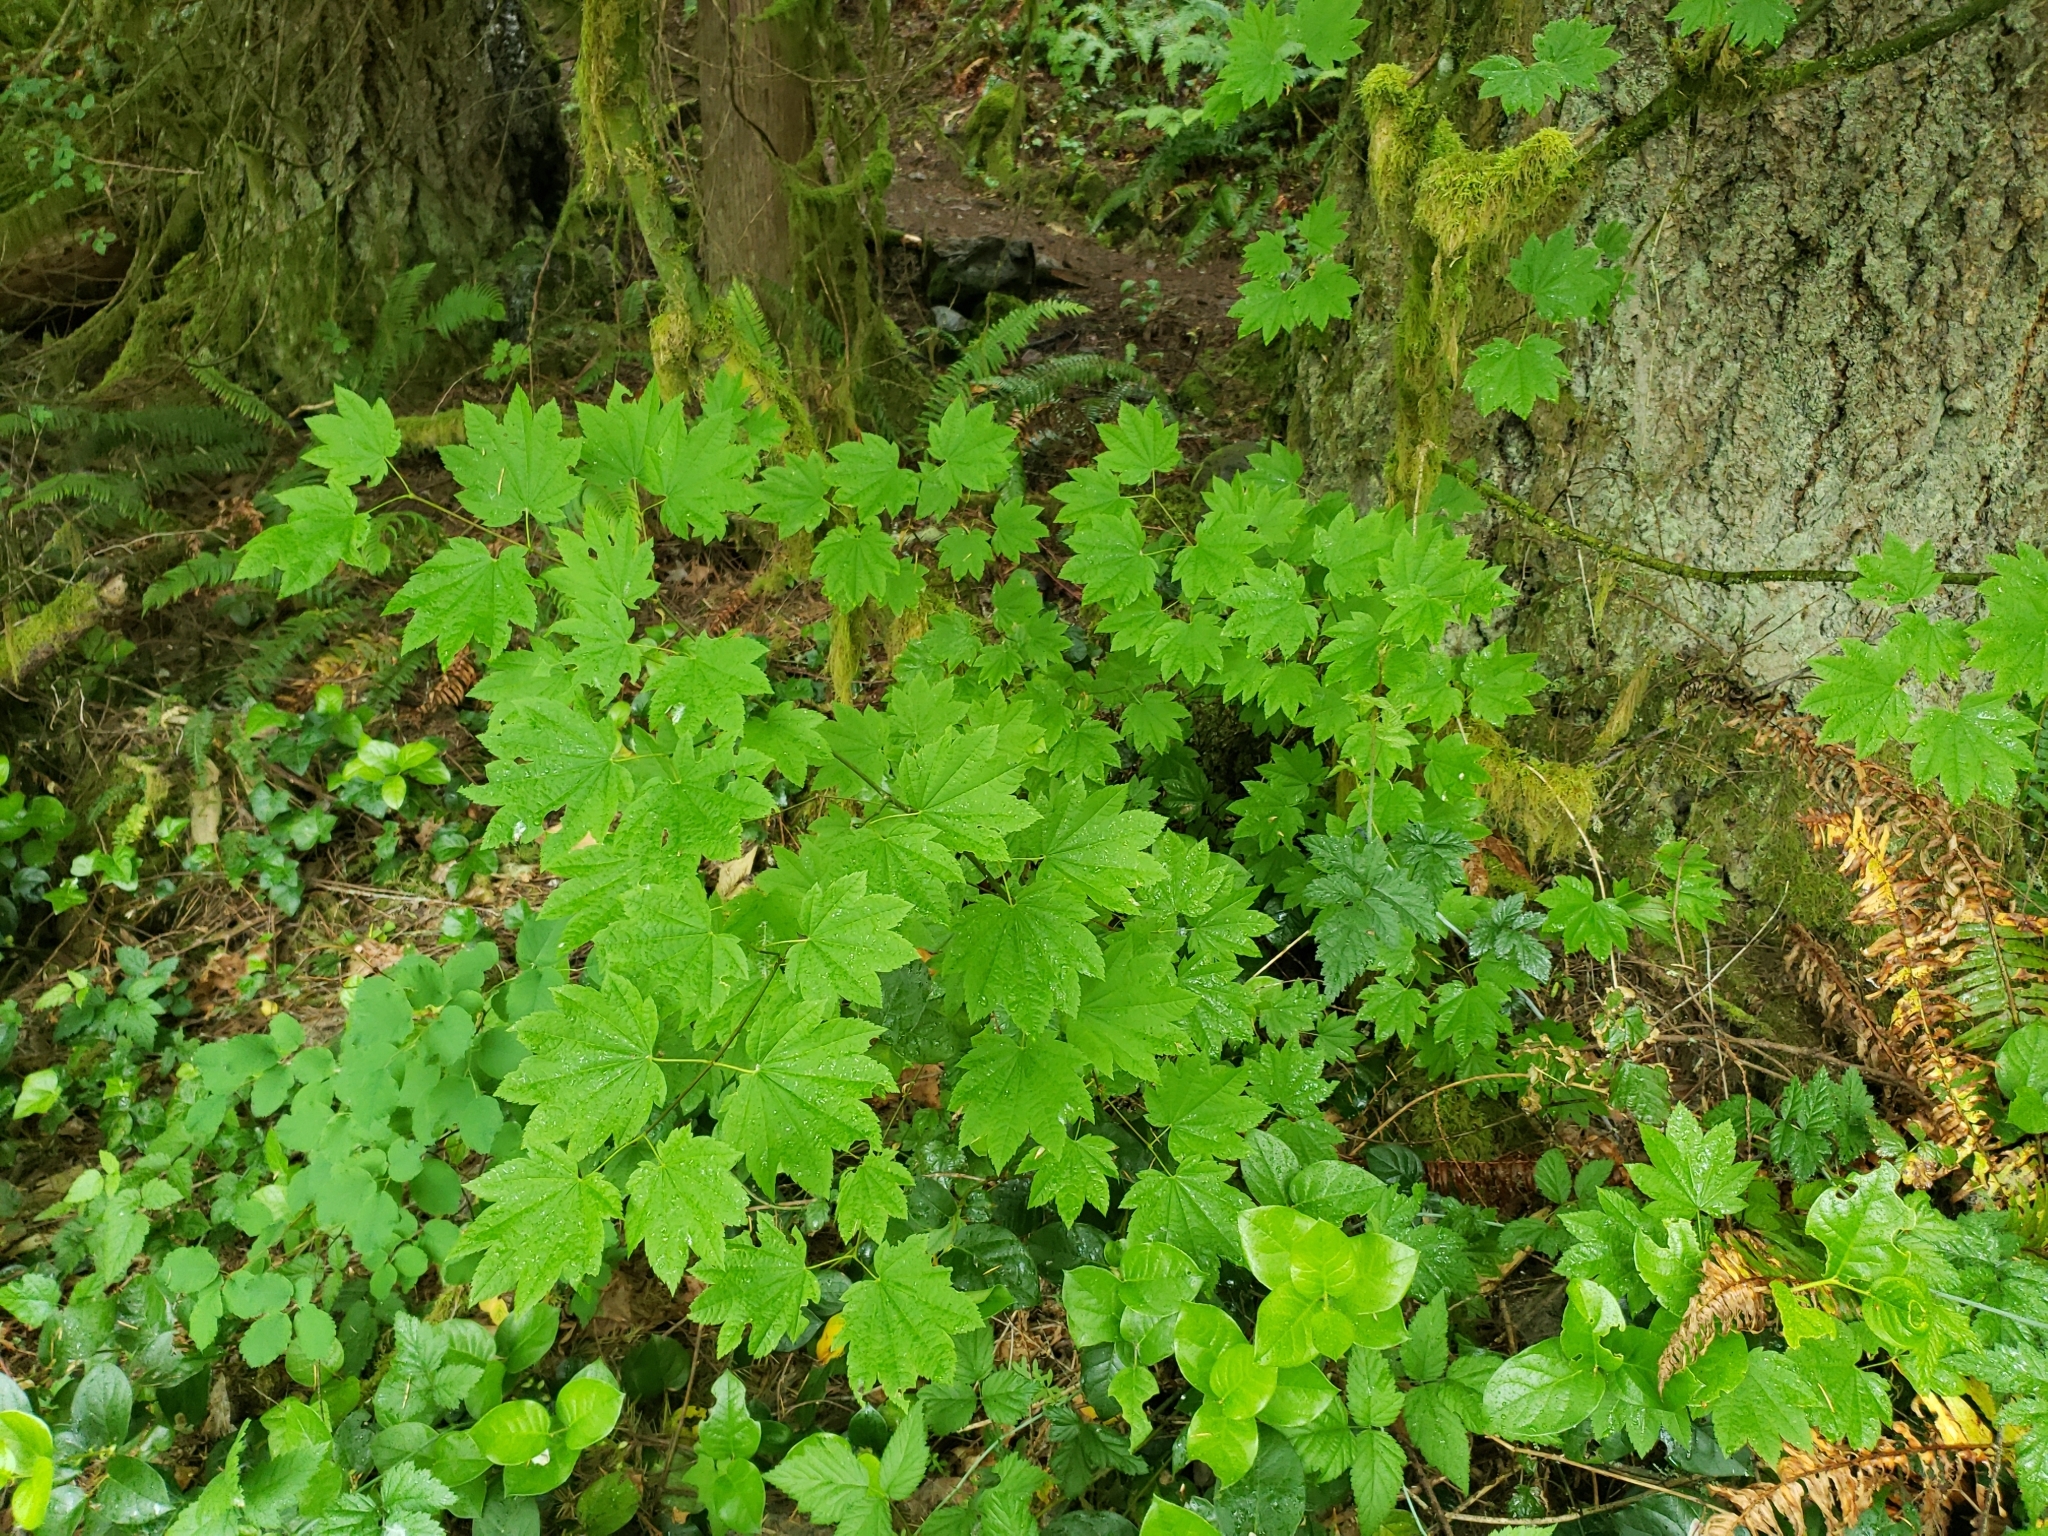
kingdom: Plantae
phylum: Tracheophyta
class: Magnoliopsida
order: Sapindales
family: Sapindaceae
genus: Acer
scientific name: Acer circinatum
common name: Vine maple
